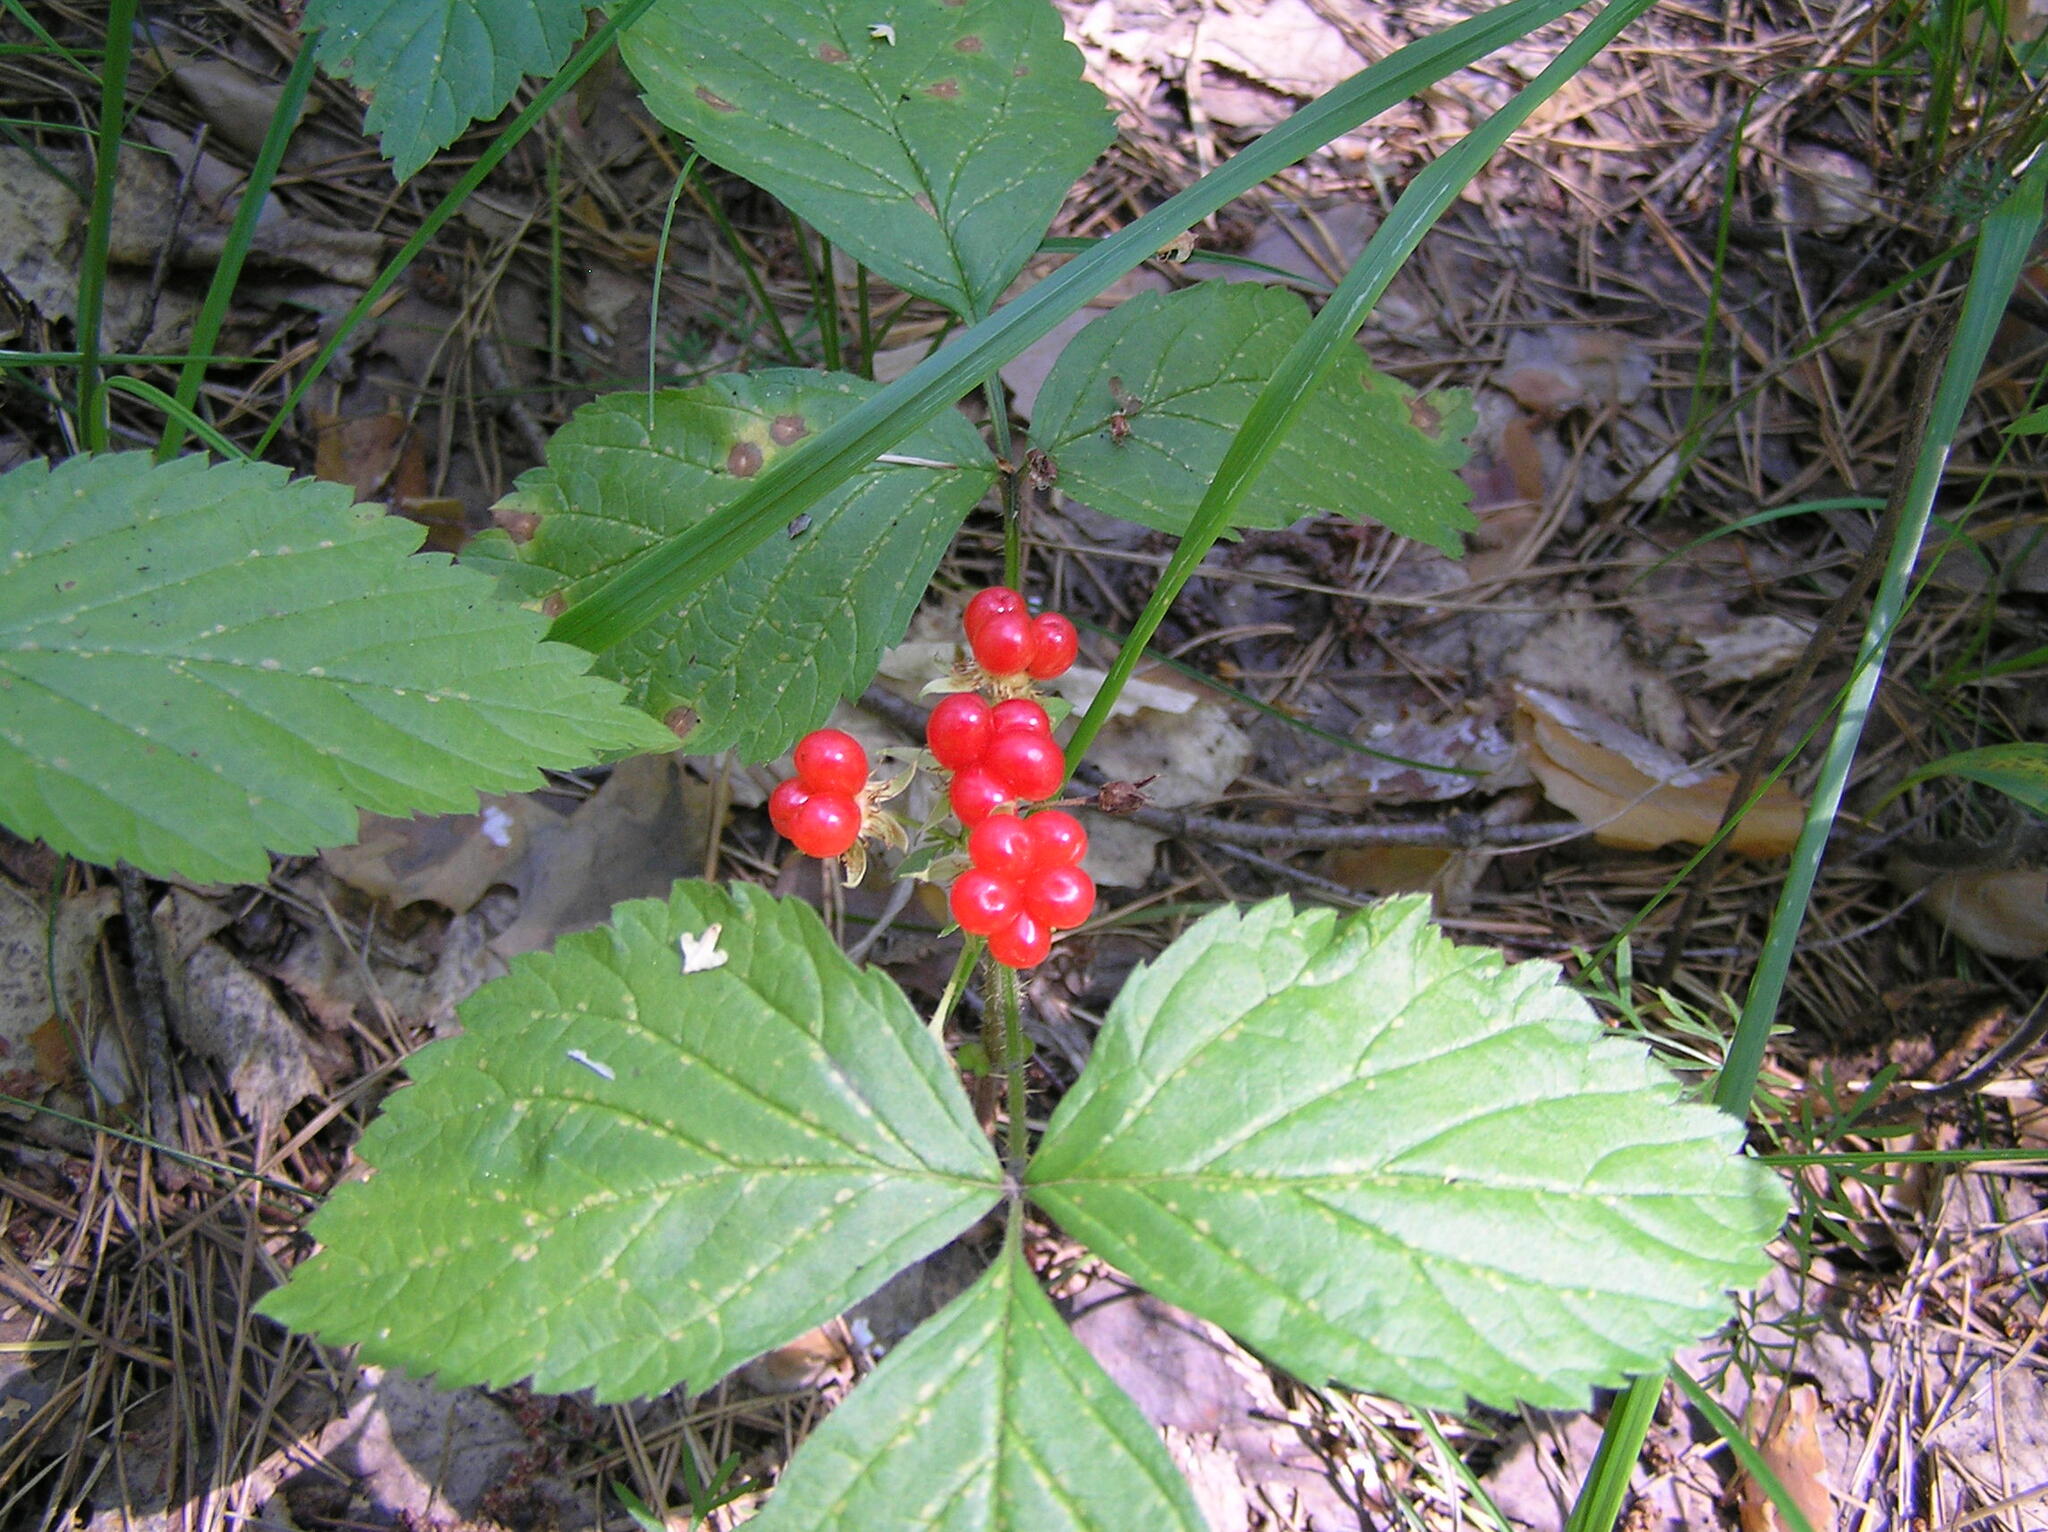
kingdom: Plantae
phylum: Tracheophyta
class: Magnoliopsida
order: Rosales
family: Rosaceae
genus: Rubus
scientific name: Rubus saxatilis
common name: Stone bramble
